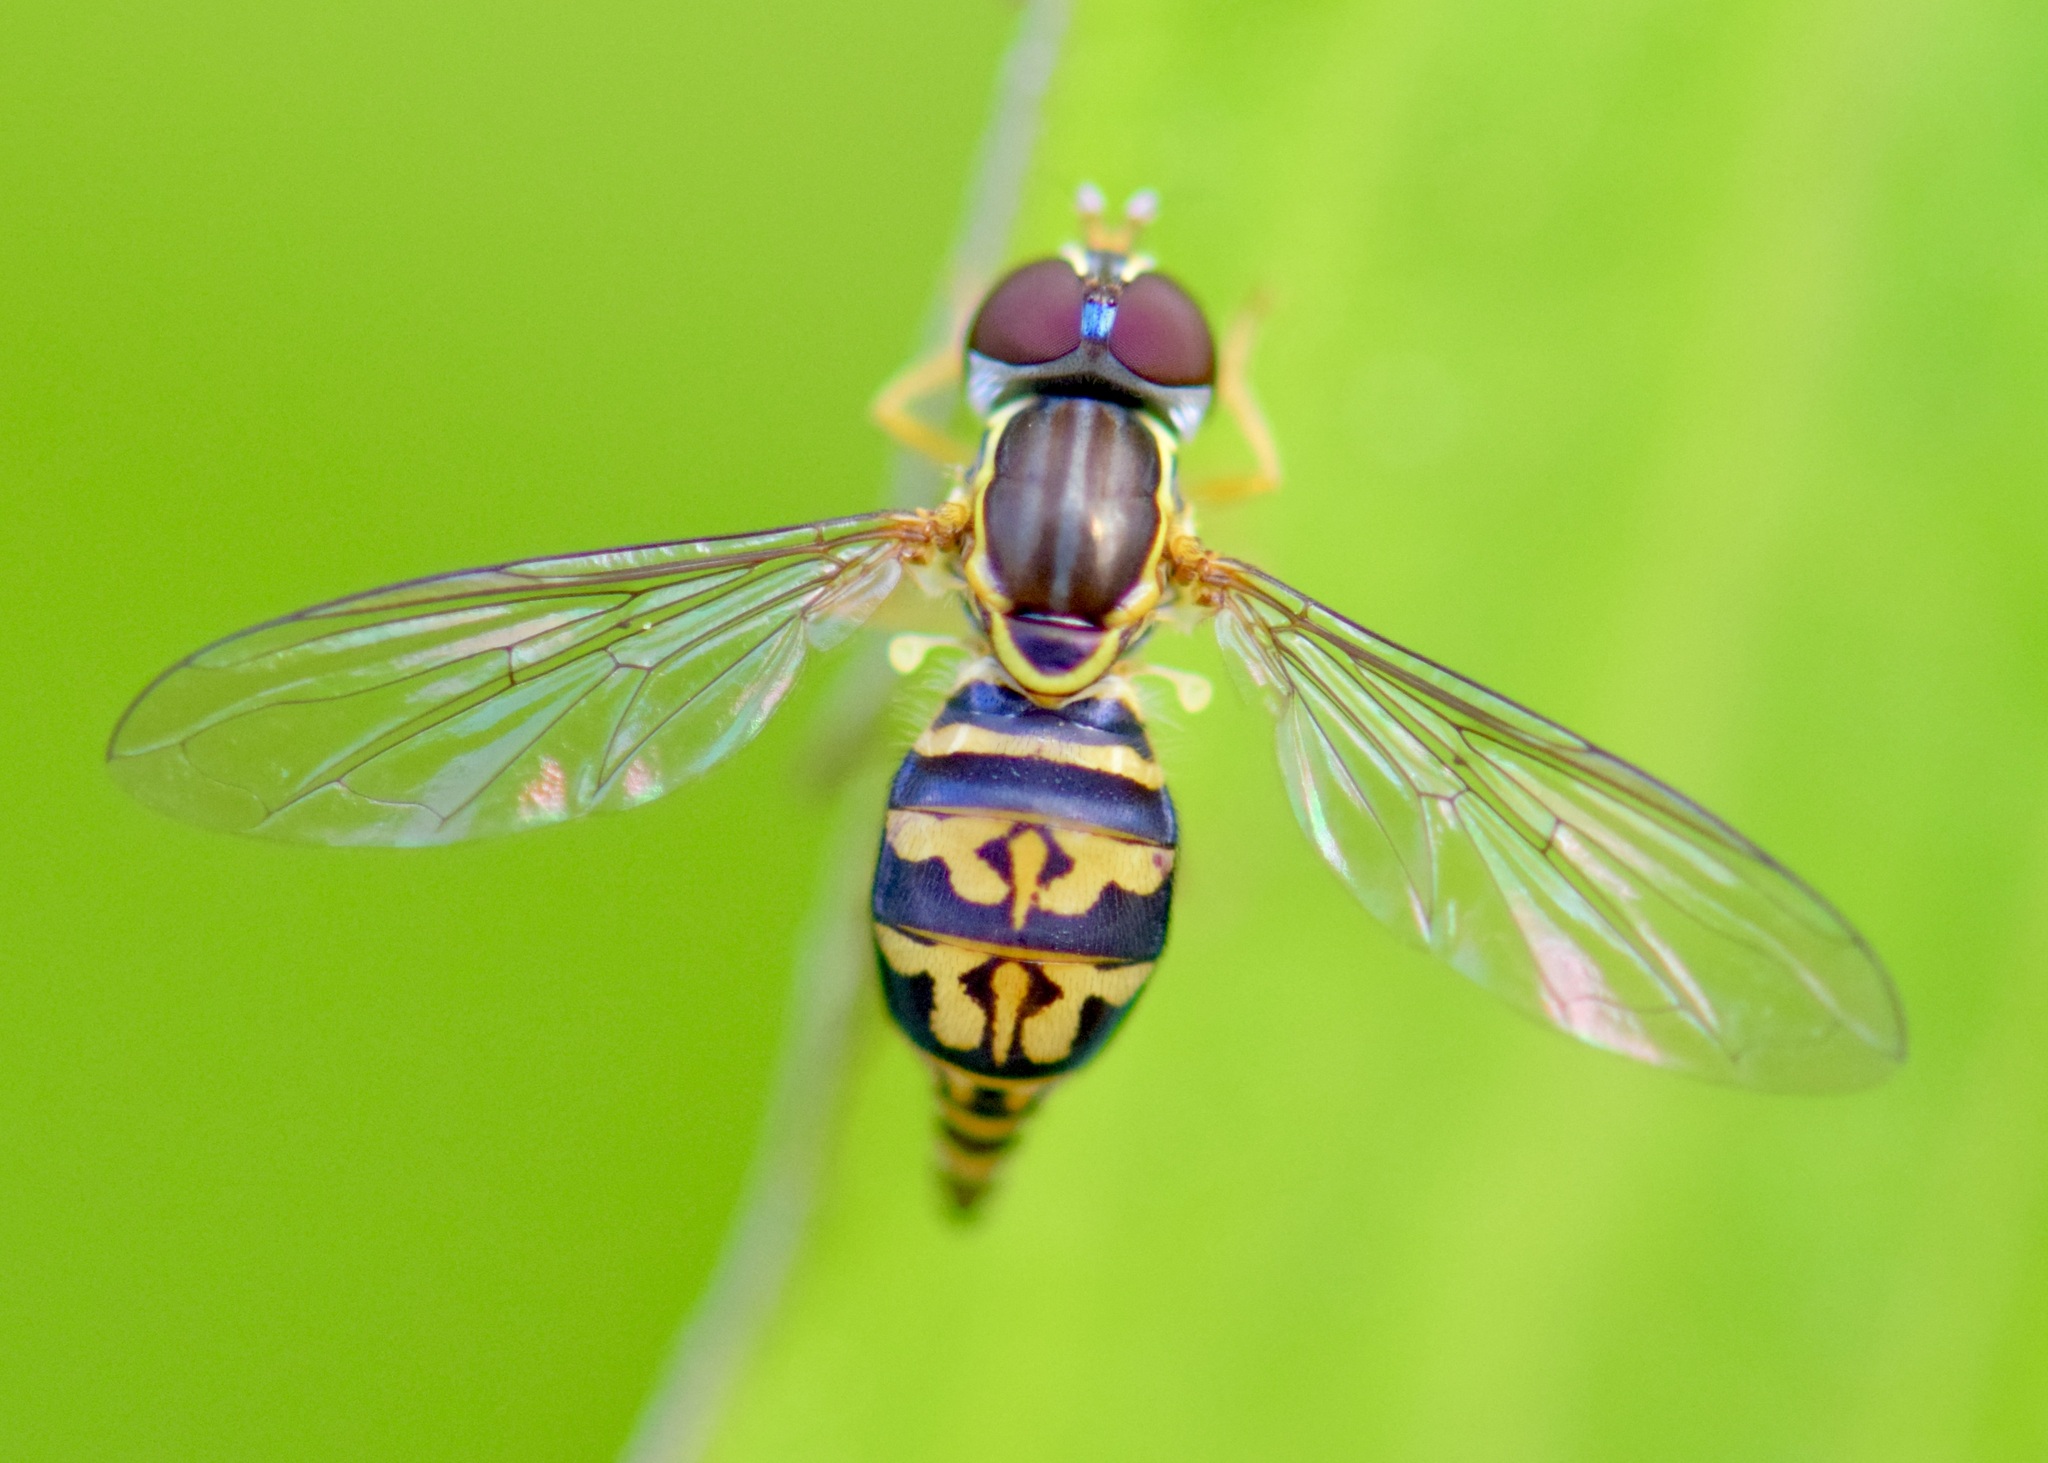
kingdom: Animalia
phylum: Arthropoda
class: Insecta
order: Diptera
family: Syrphidae
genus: Toxomerus
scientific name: Toxomerus geminatus
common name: Eastern calligrapher
